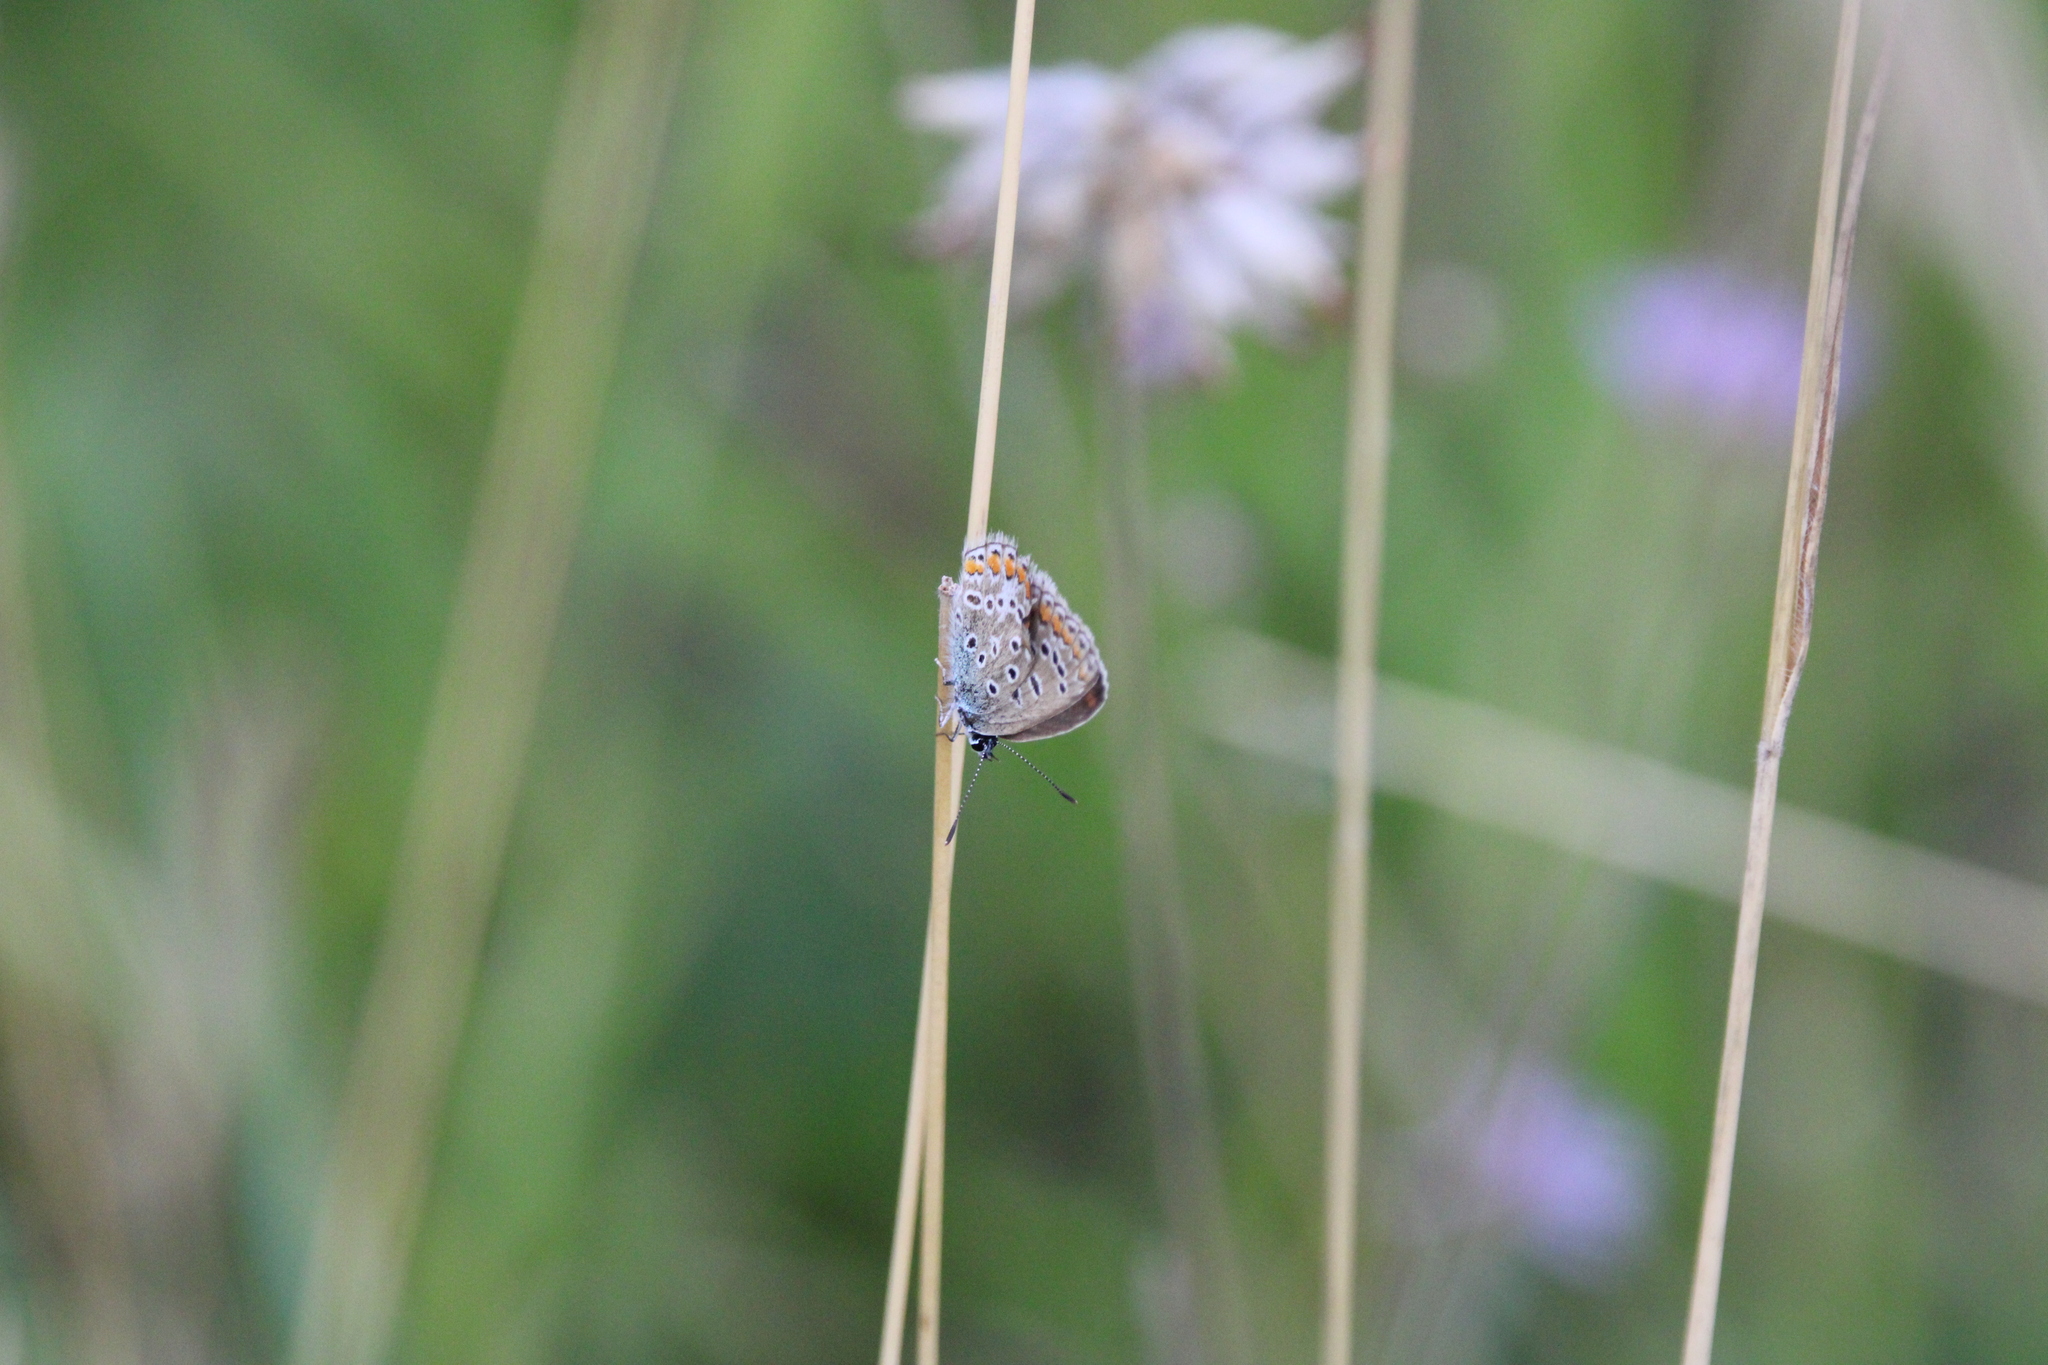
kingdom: Animalia
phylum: Arthropoda
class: Insecta
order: Lepidoptera
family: Lycaenidae
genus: Polyommatus
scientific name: Polyommatus icarus
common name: Common blue
